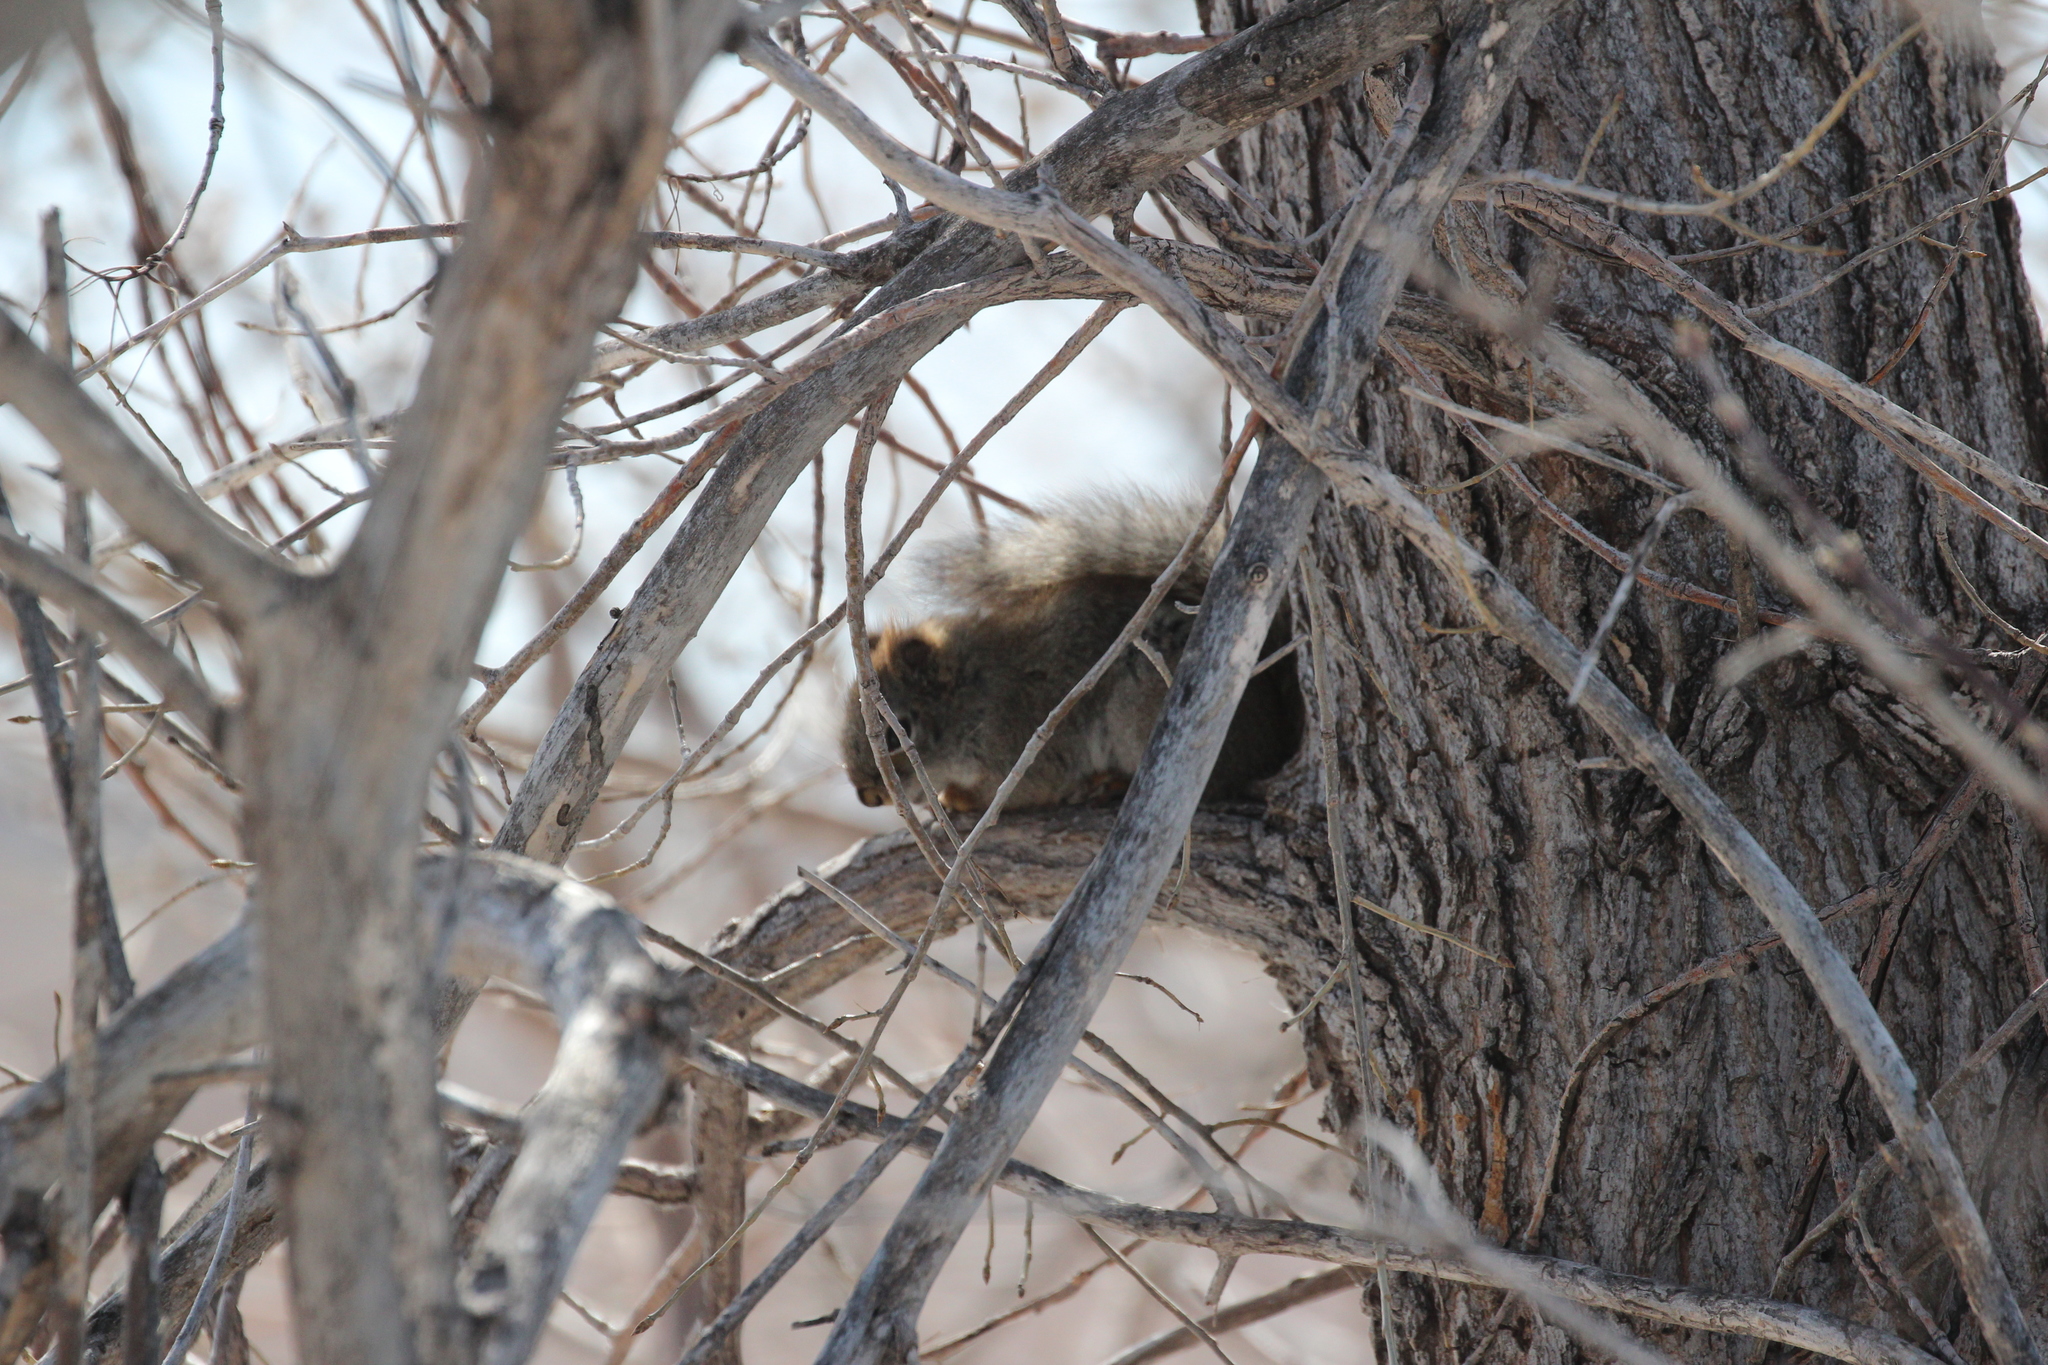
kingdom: Animalia
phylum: Chordata
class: Mammalia
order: Rodentia
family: Sciuridae
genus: Tamiasciurus
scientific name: Tamiasciurus hudsonicus
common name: Red squirrel
